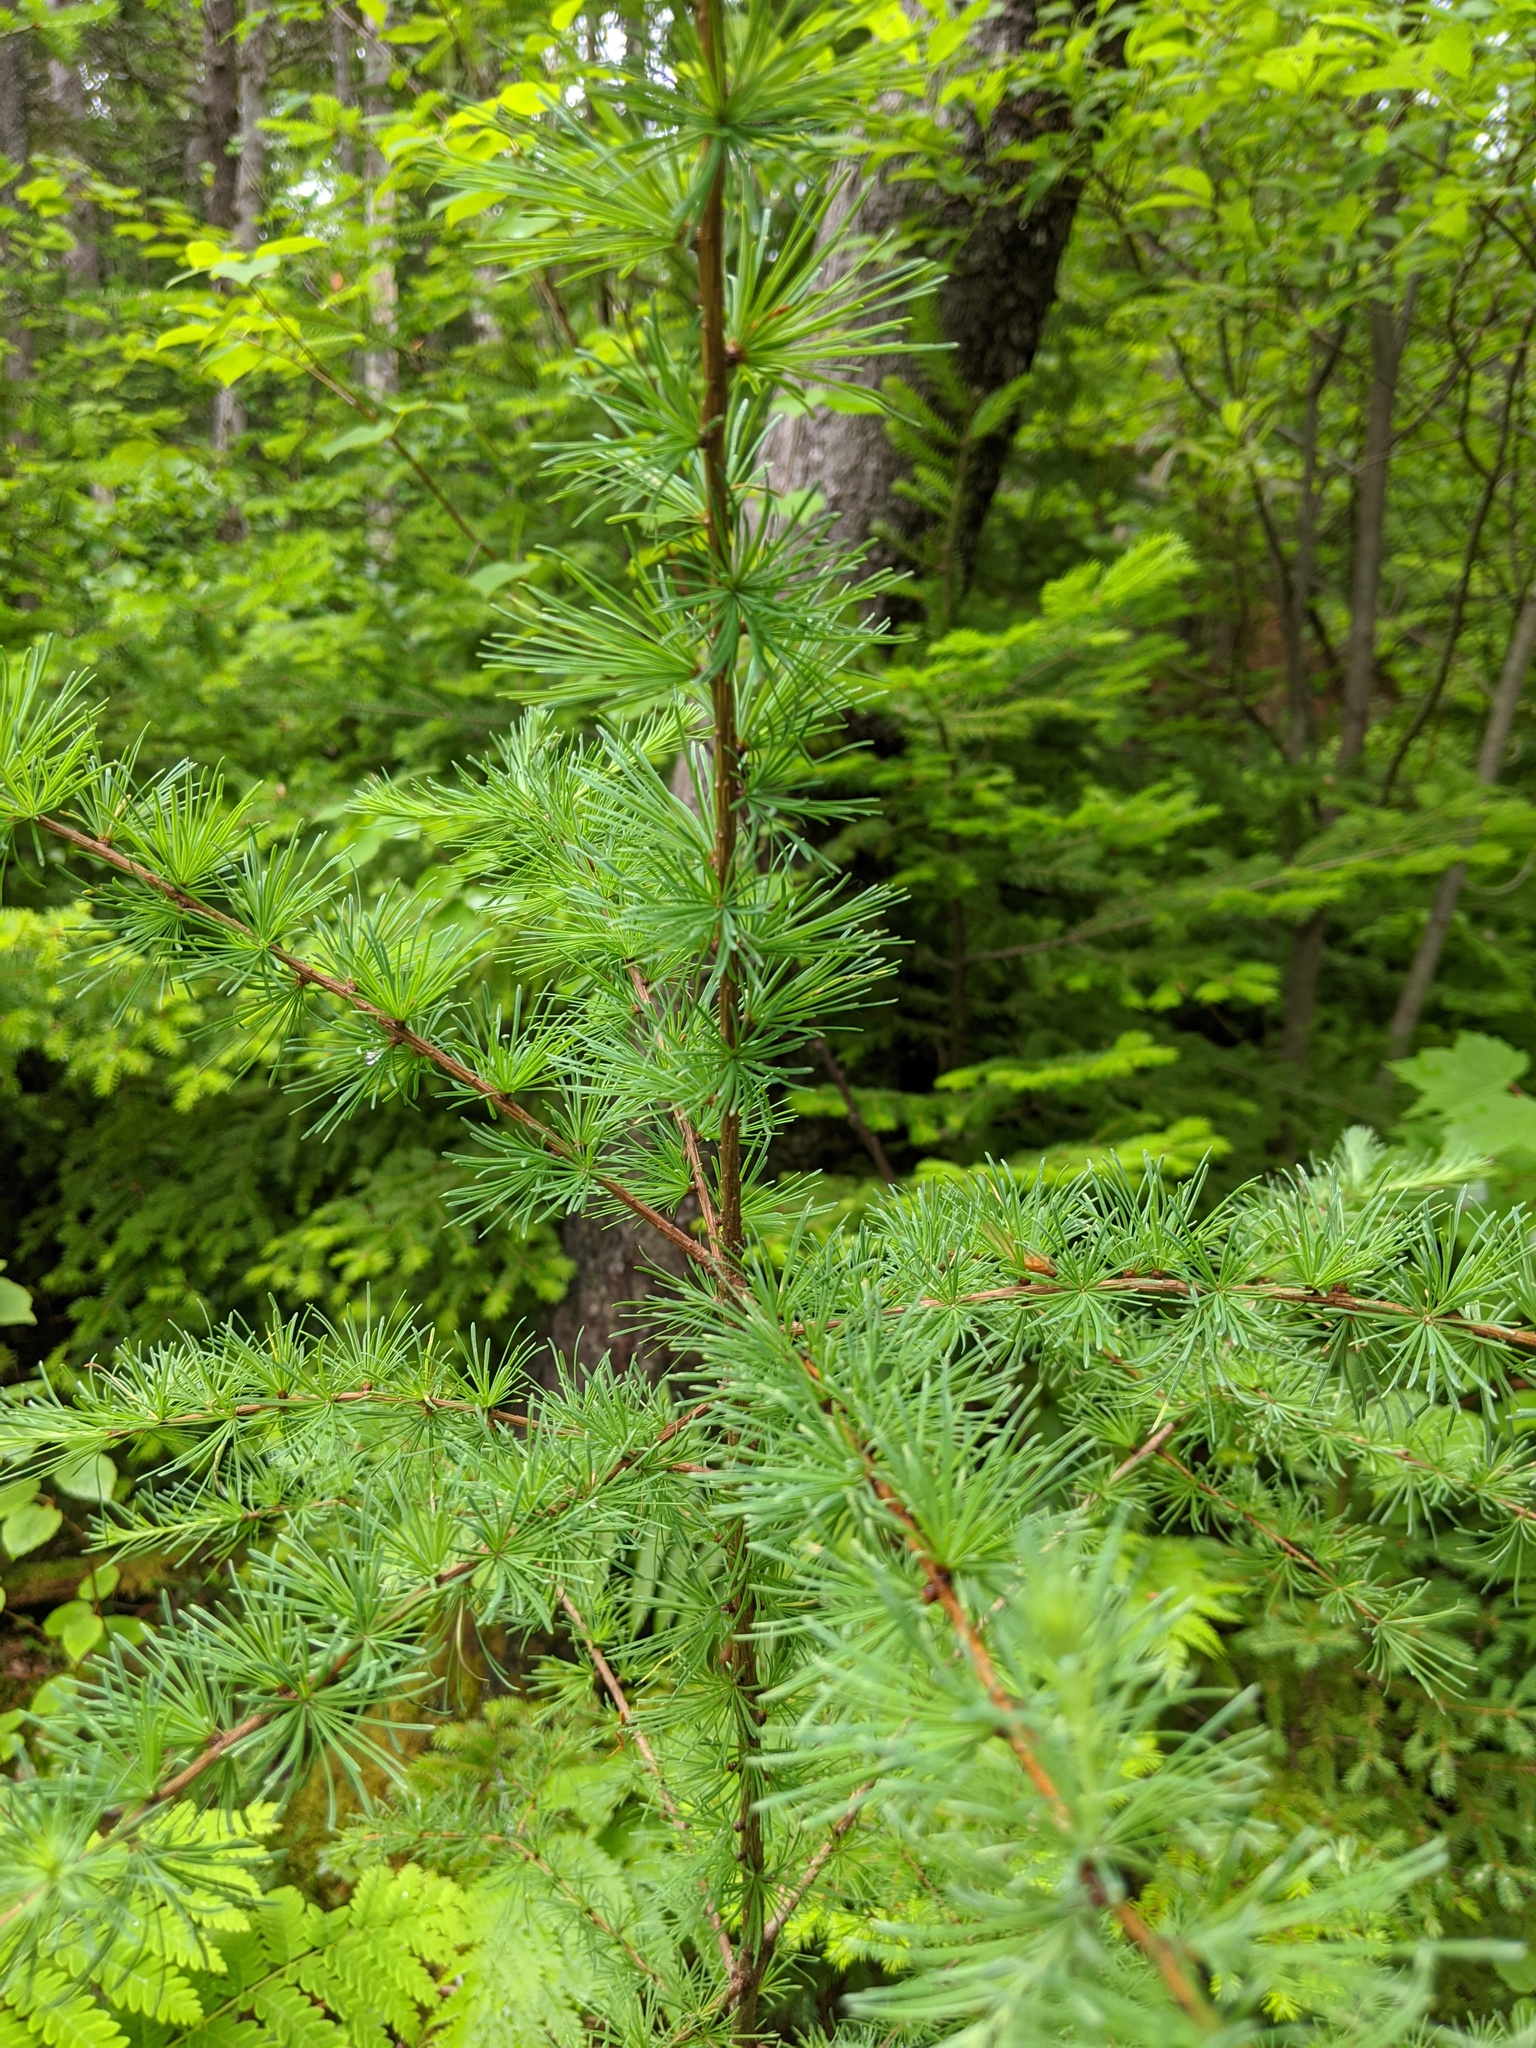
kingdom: Plantae
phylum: Tracheophyta
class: Pinopsida
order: Pinales
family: Pinaceae
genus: Larix
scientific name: Larix laricina
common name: American larch
